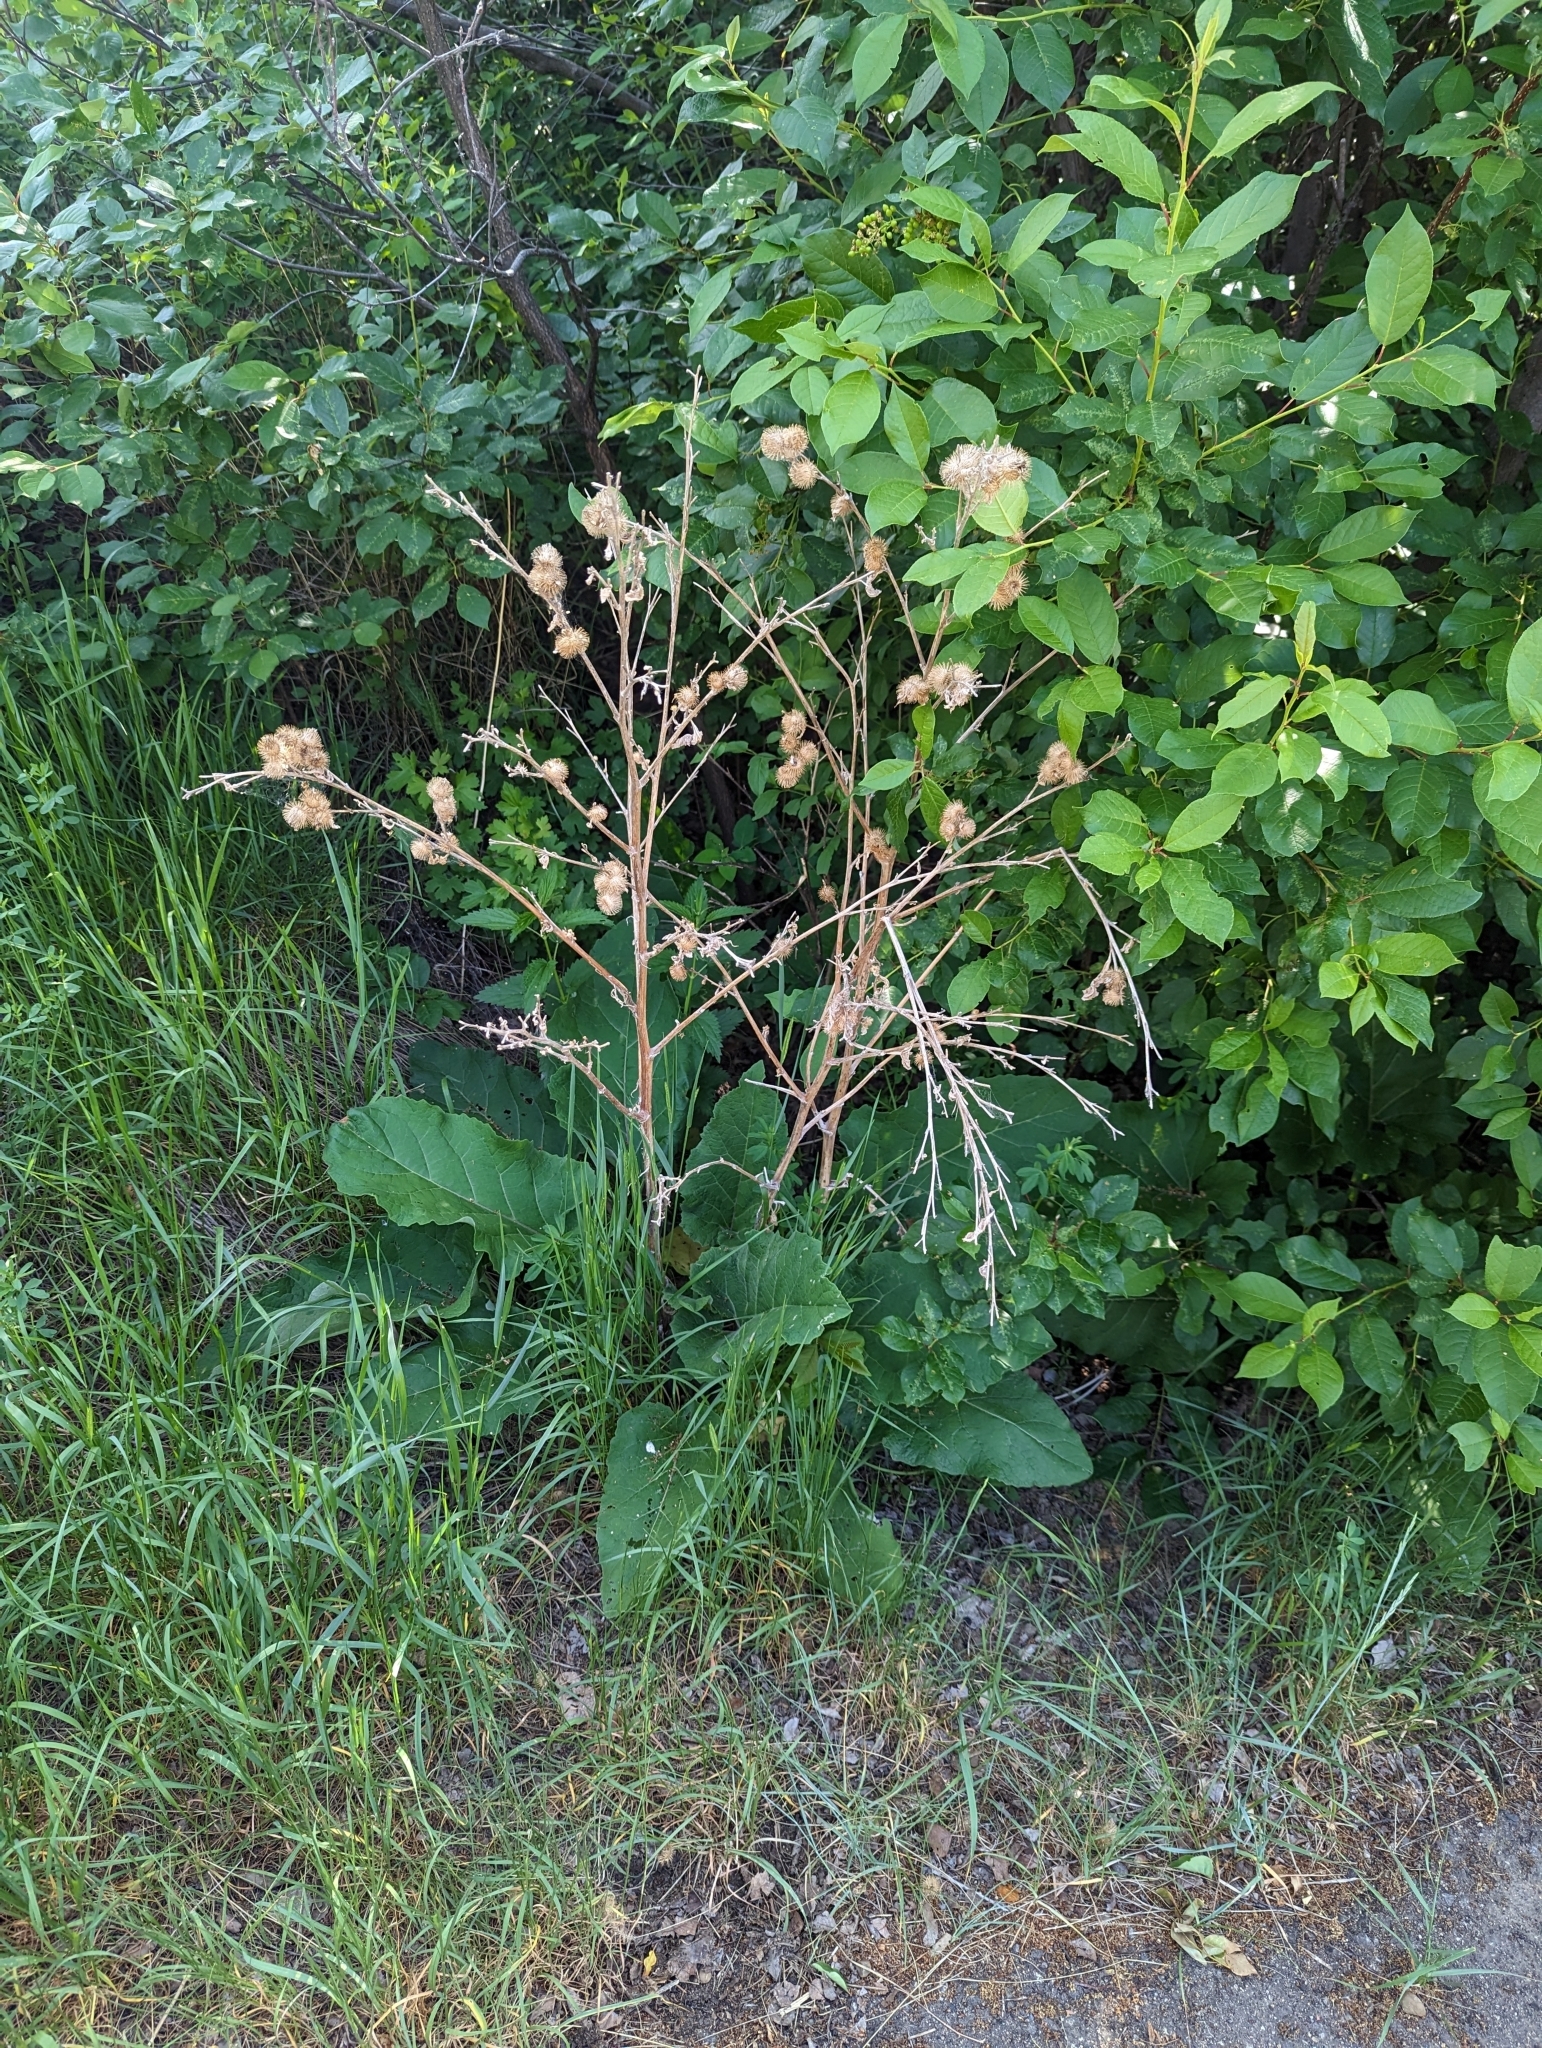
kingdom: Plantae
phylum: Tracheophyta
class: Magnoliopsida
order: Asterales
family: Asteraceae
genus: Arctium
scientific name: Arctium minus
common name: Lesser burdock
